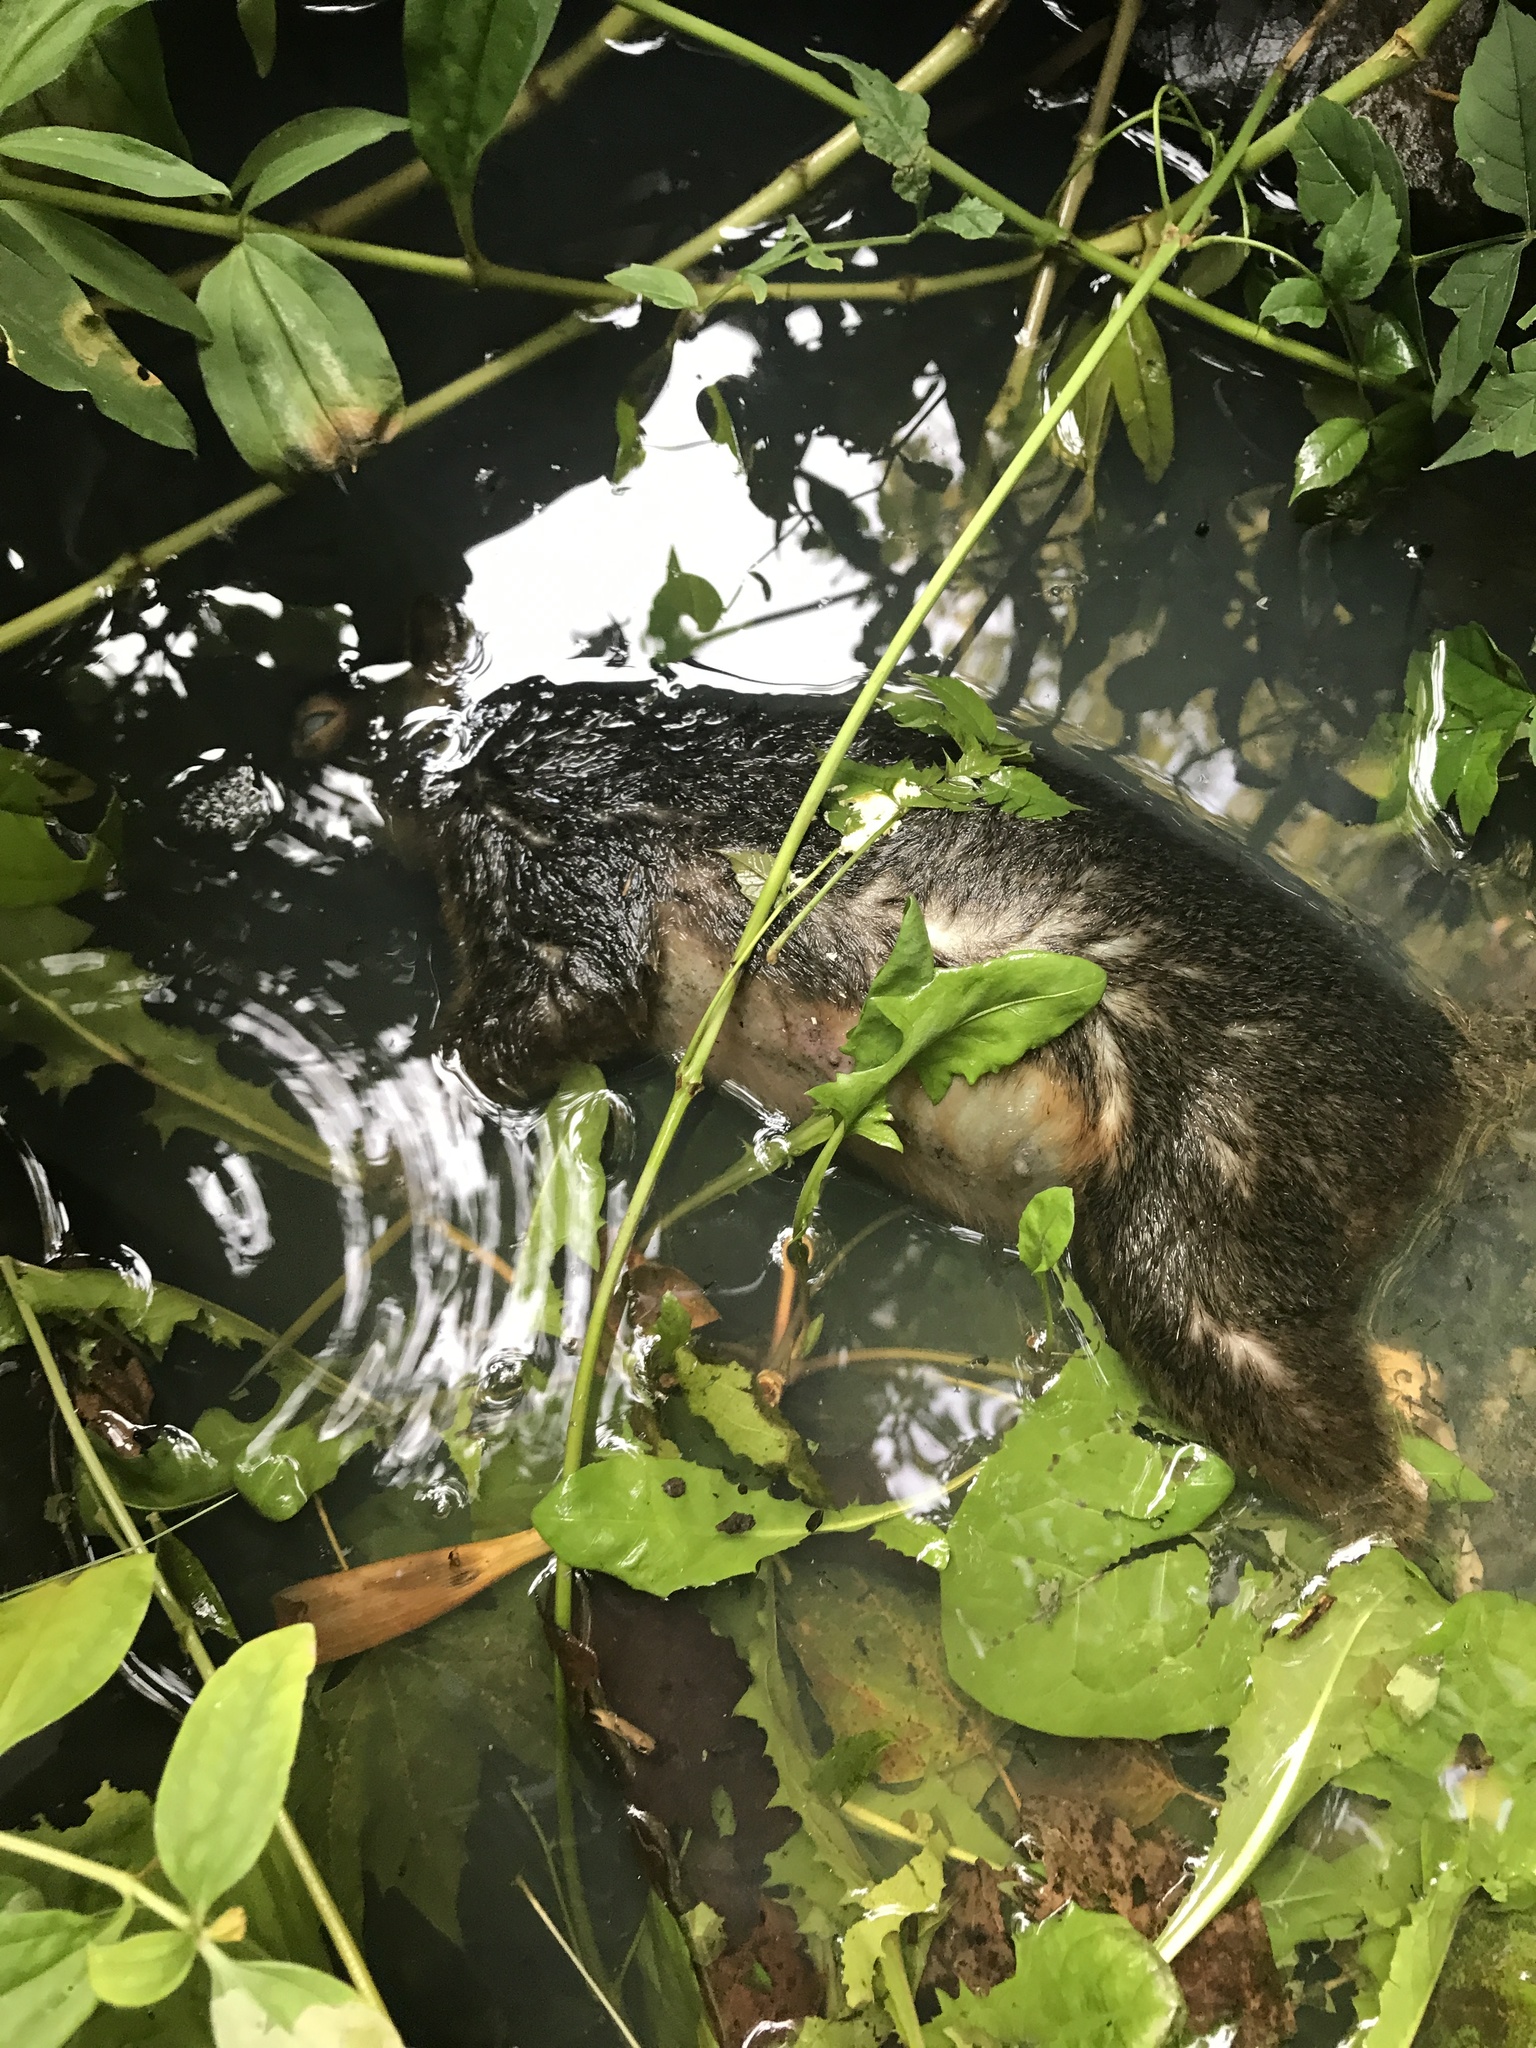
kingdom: Animalia
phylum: Chordata
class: Mammalia
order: Rodentia
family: Sciuridae
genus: Sciurus
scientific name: Sciurus niger
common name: Fox squirrel
